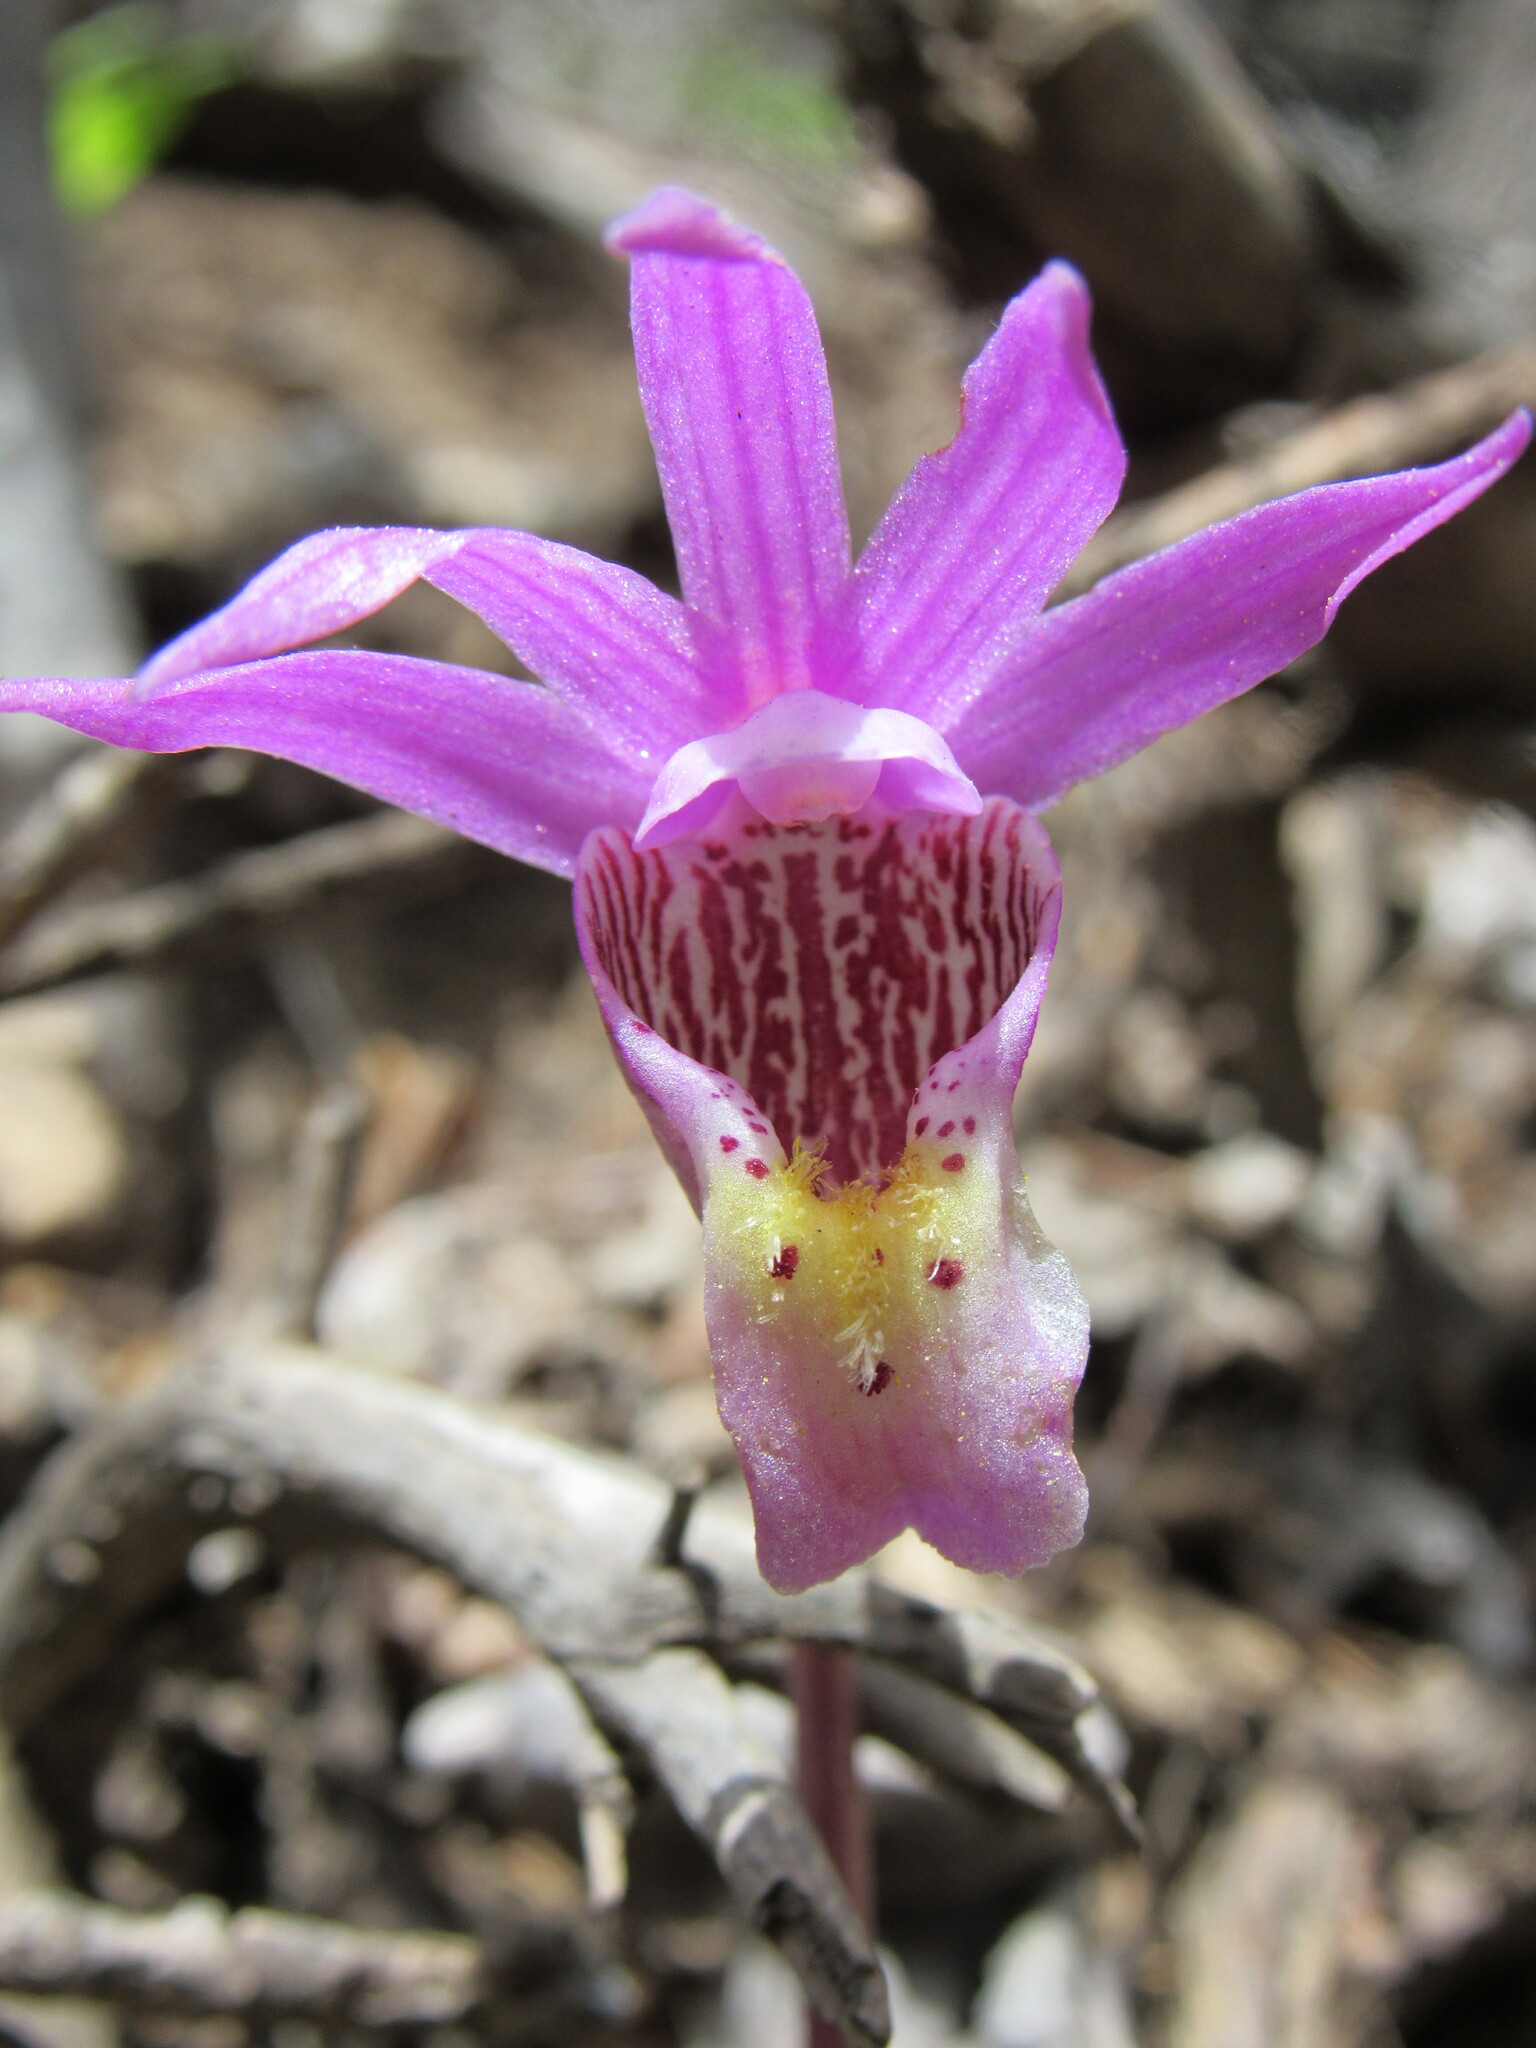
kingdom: Plantae
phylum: Tracheophyta
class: Liliopsida
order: Asparagales
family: Orchidaceae
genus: Calypso
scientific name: Calypso bulbosa
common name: Calypso
